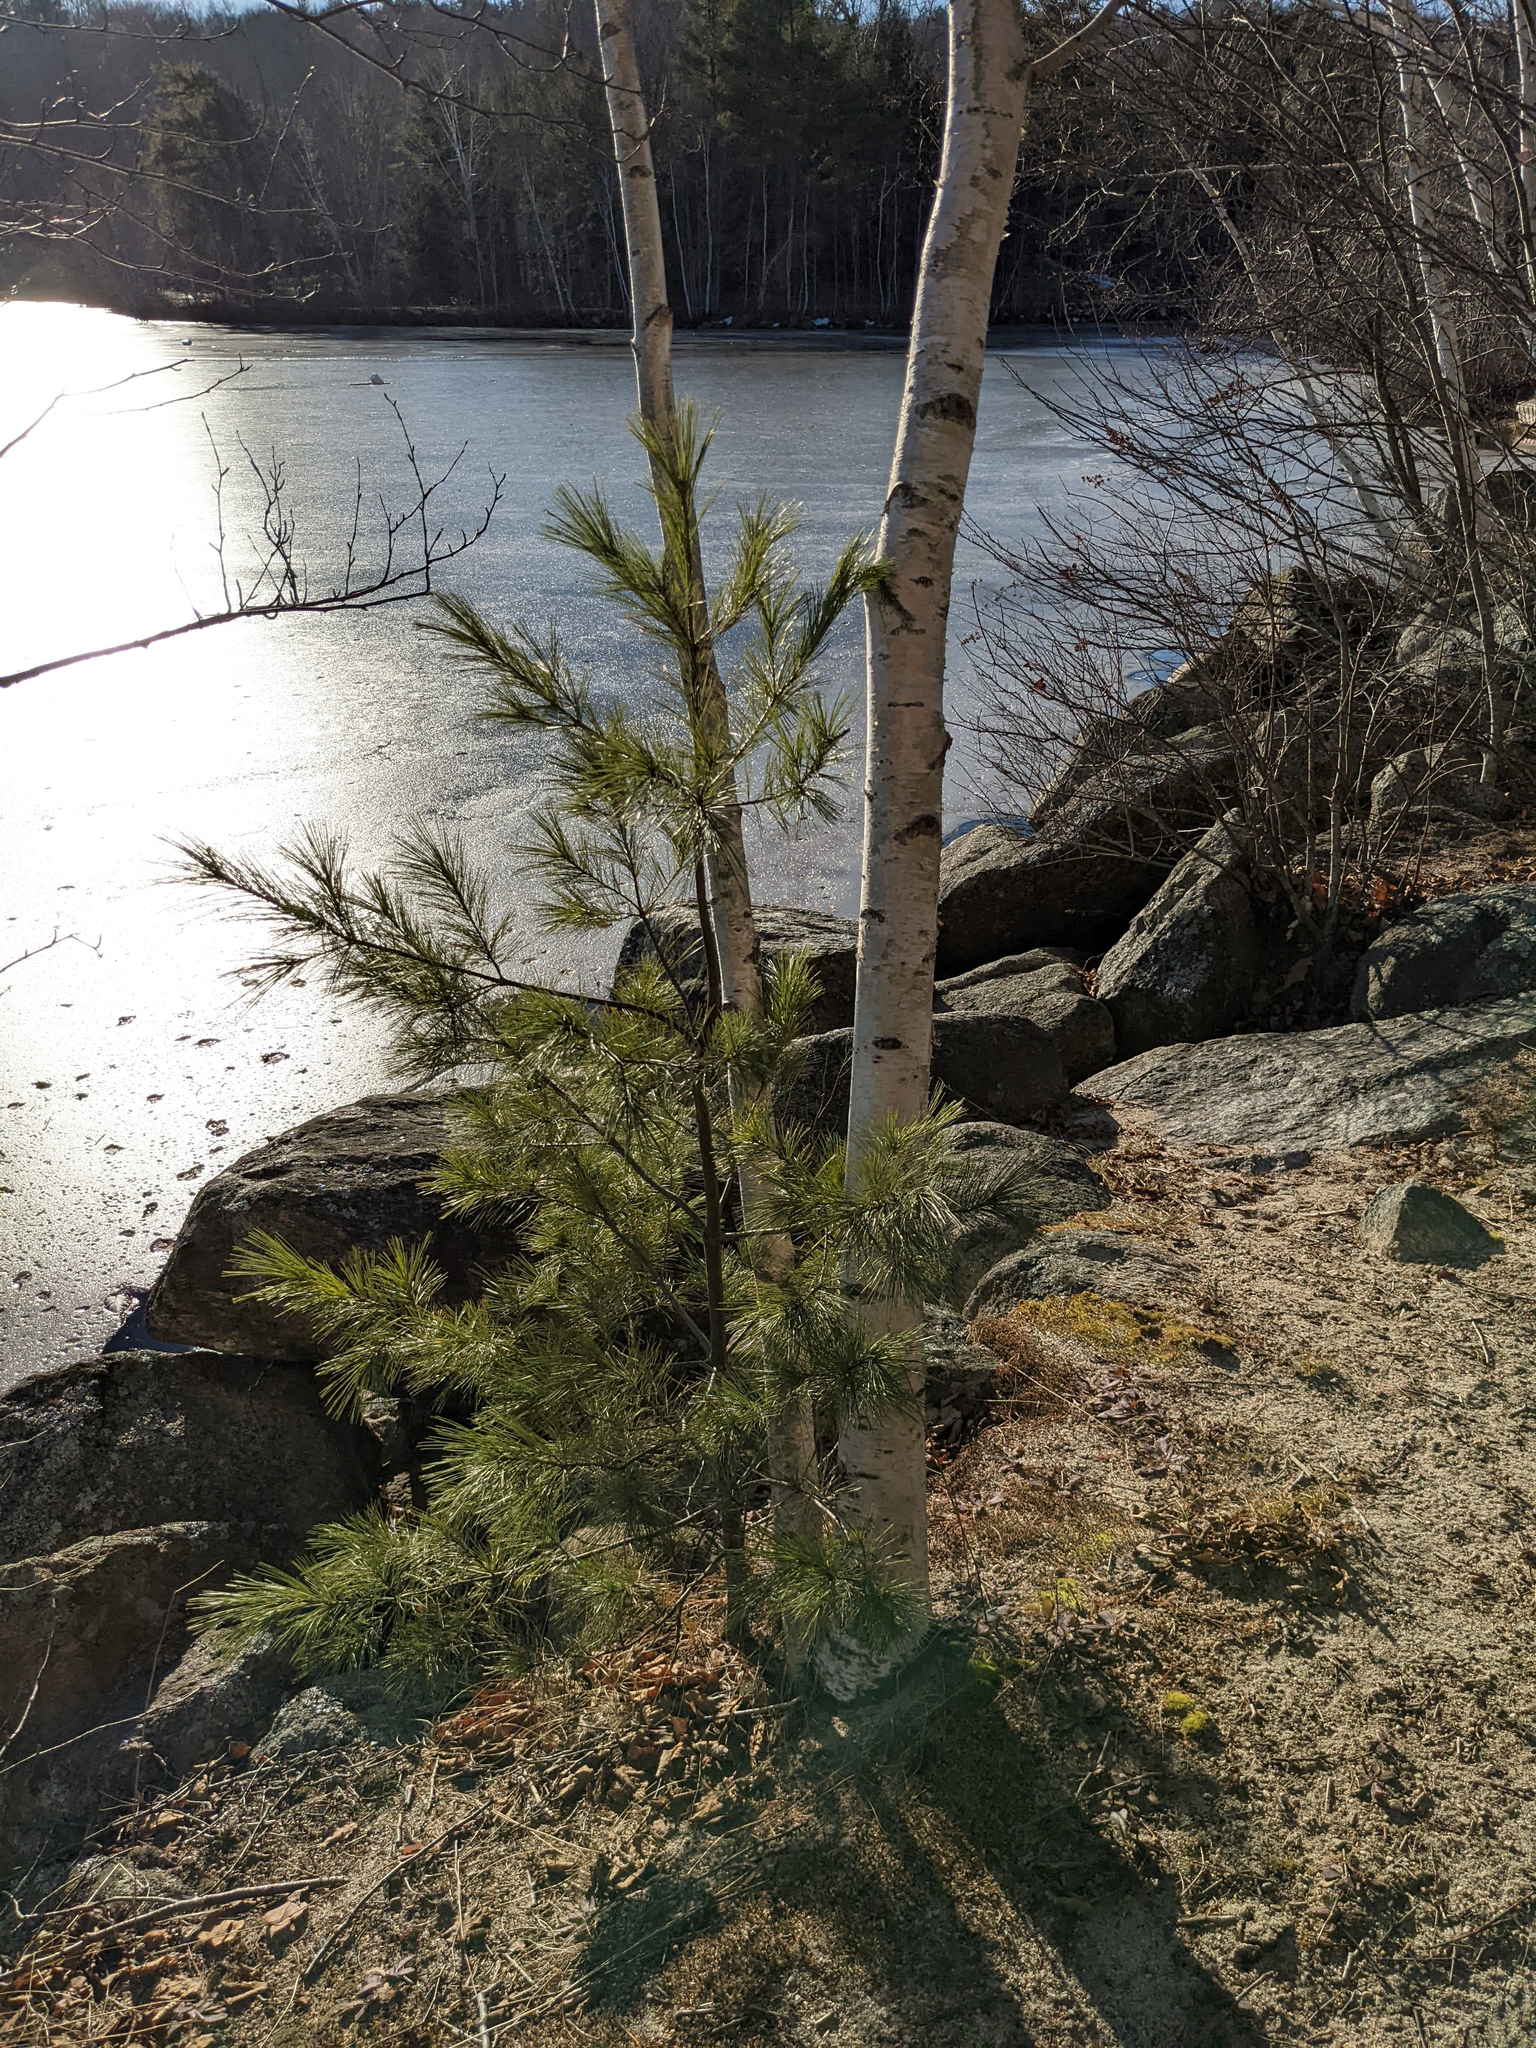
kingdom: Plantae
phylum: Tracheophyta
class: Pinopsida
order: Pinales
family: Pinaceae
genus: Pinus
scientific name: Pinus strobus
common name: Weymouth pine
